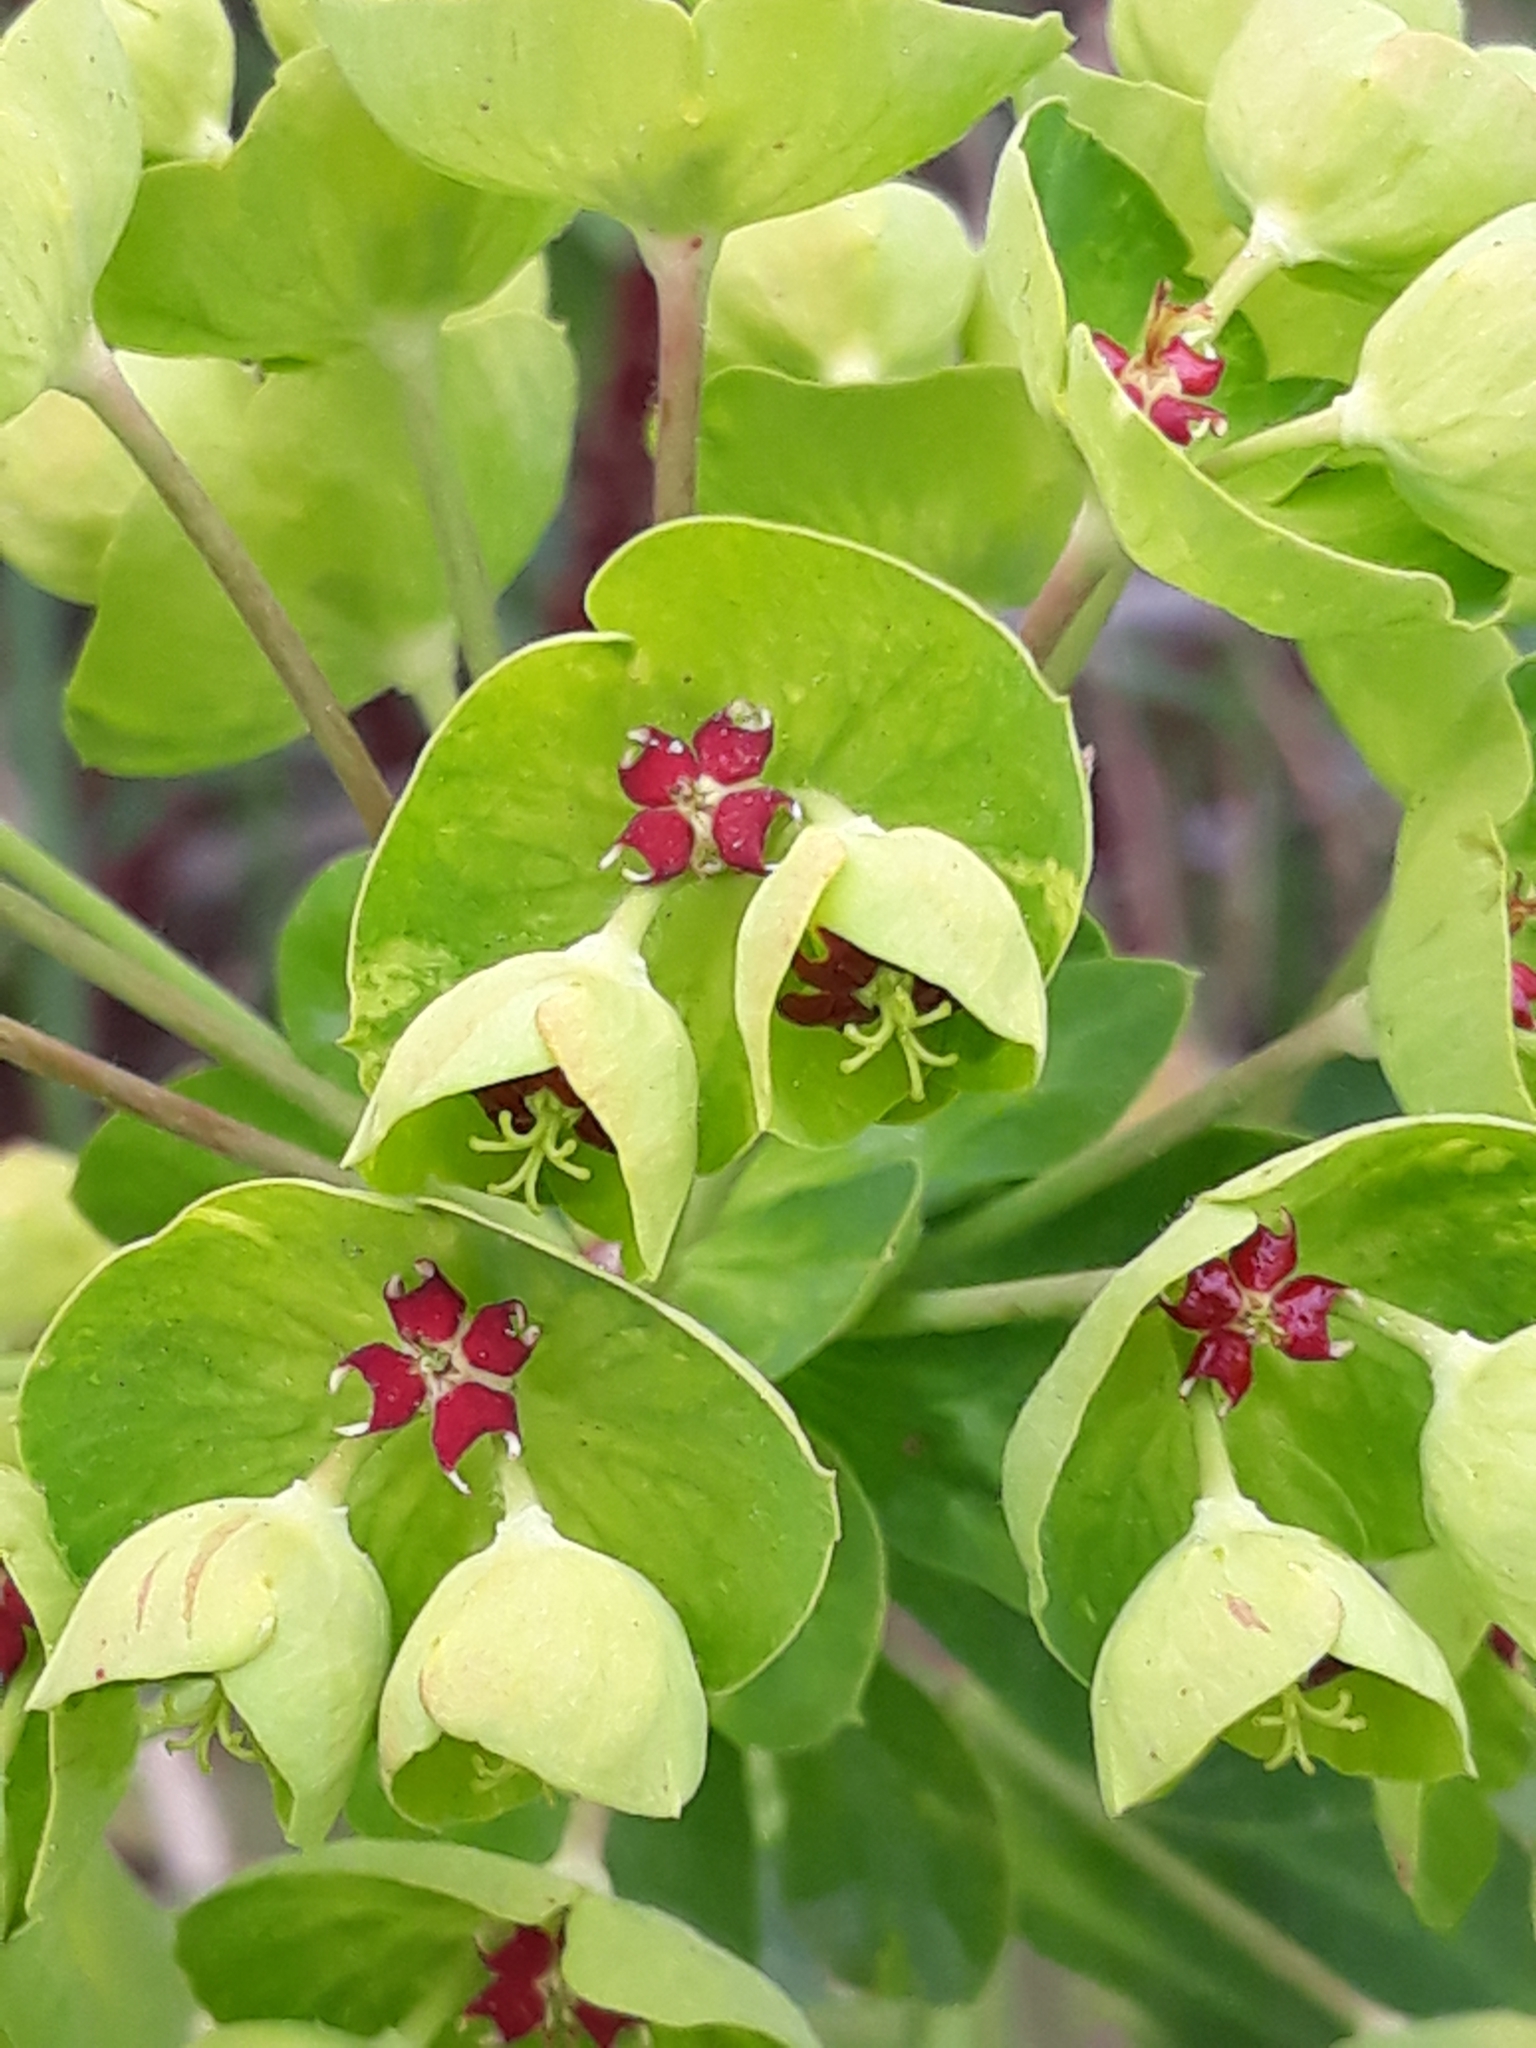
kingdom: Plantae
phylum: Tracheophyta
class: Magnoliopsida
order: Malpighiales
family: Euphorbiaceae
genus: Euphorbia
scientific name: Euphorbia characias
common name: Mediterranean spurge
